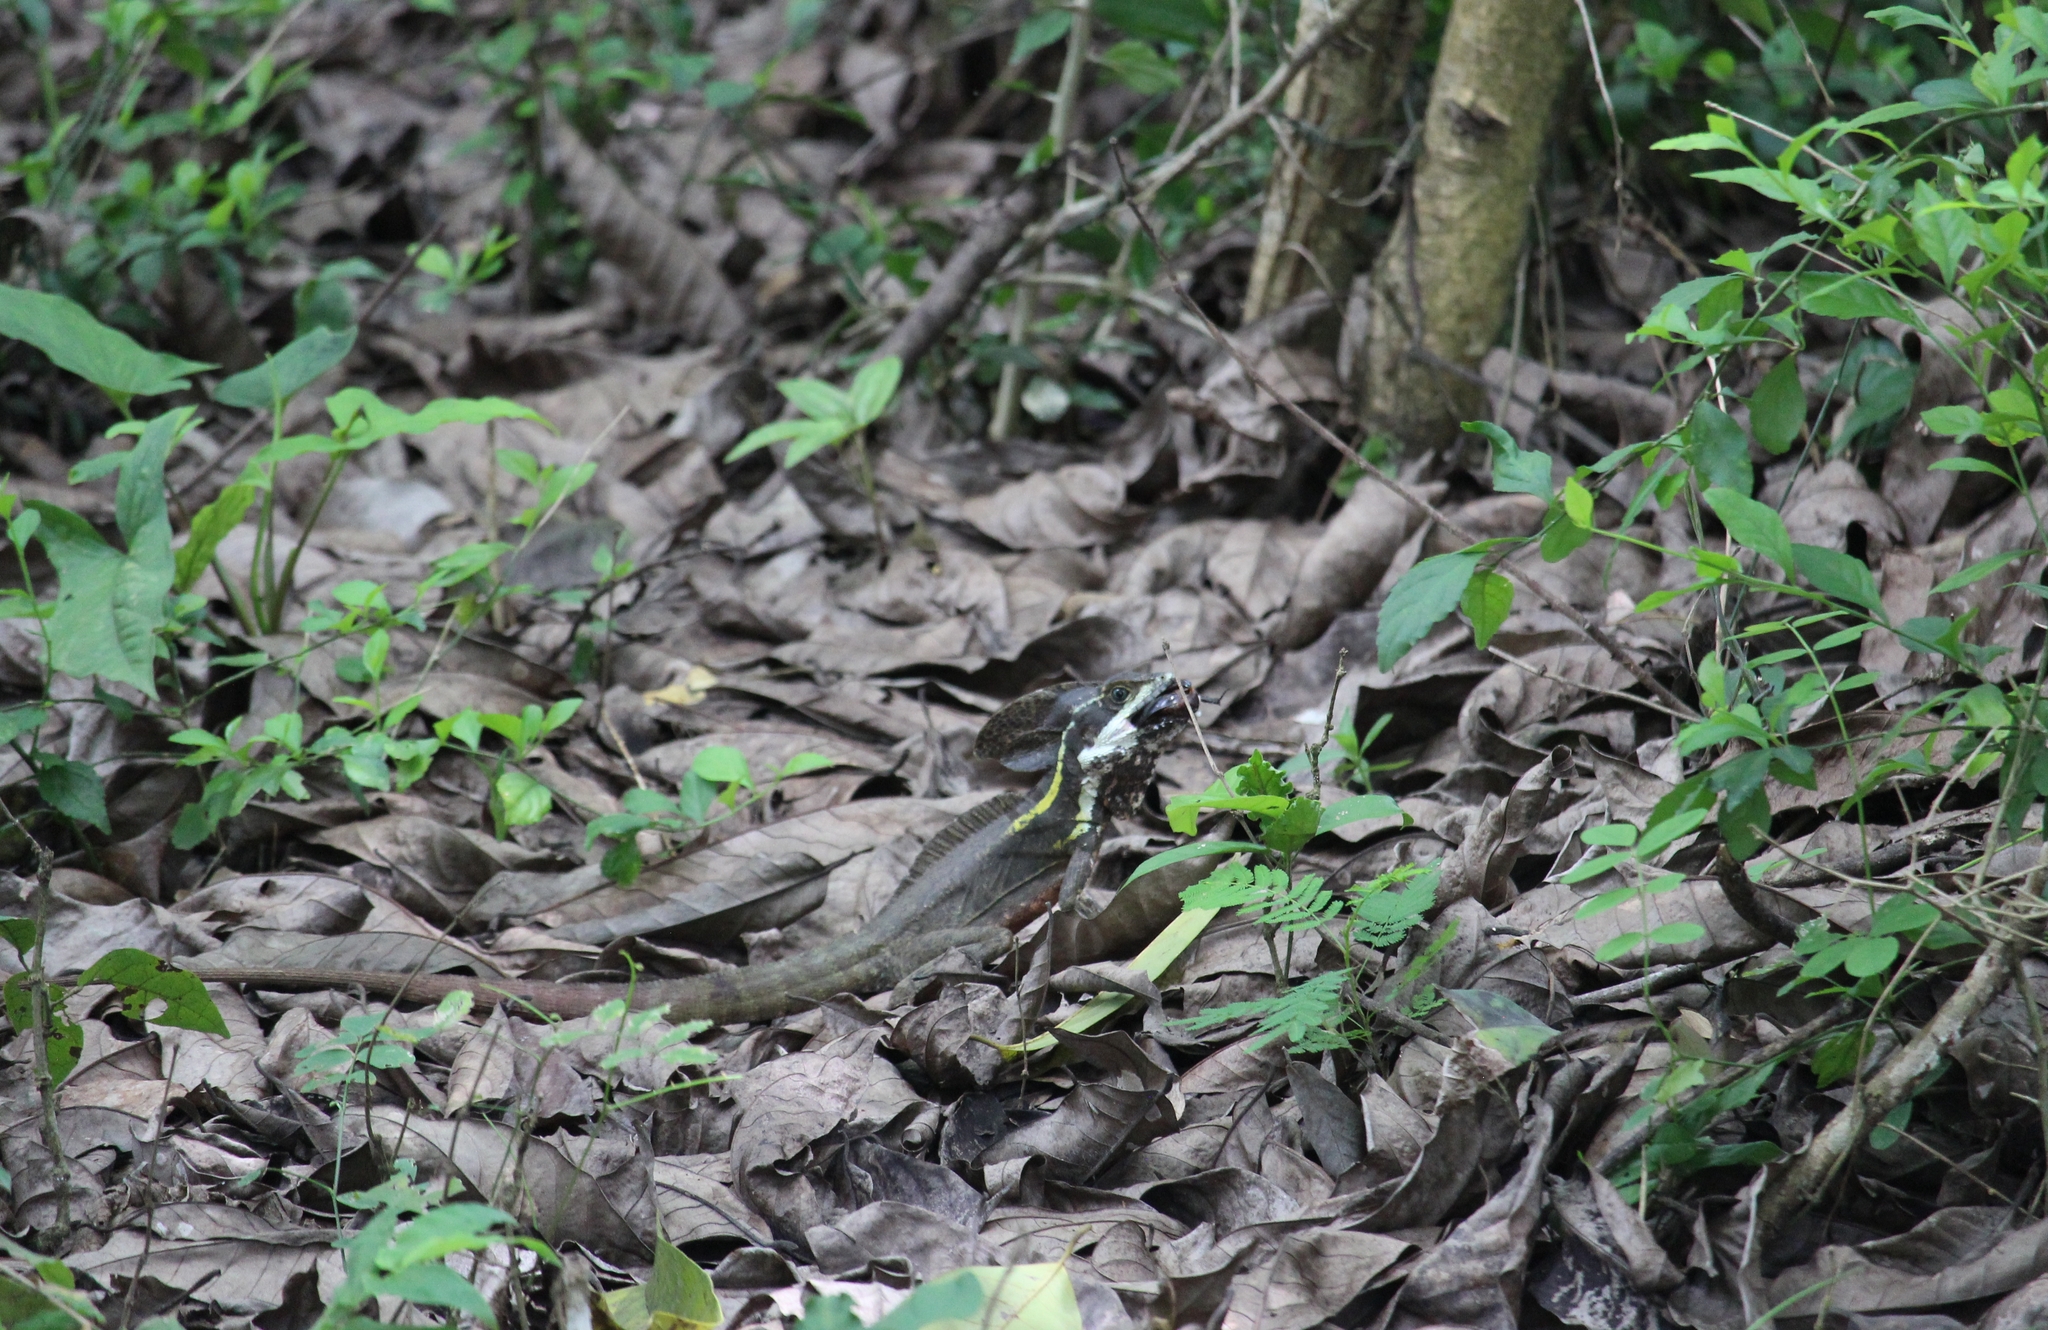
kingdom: Animalia
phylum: Chordata
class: Squamata
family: Corytophanidae
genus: Basiliscus
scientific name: Basiliscus vittatus
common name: Brown basilisk
